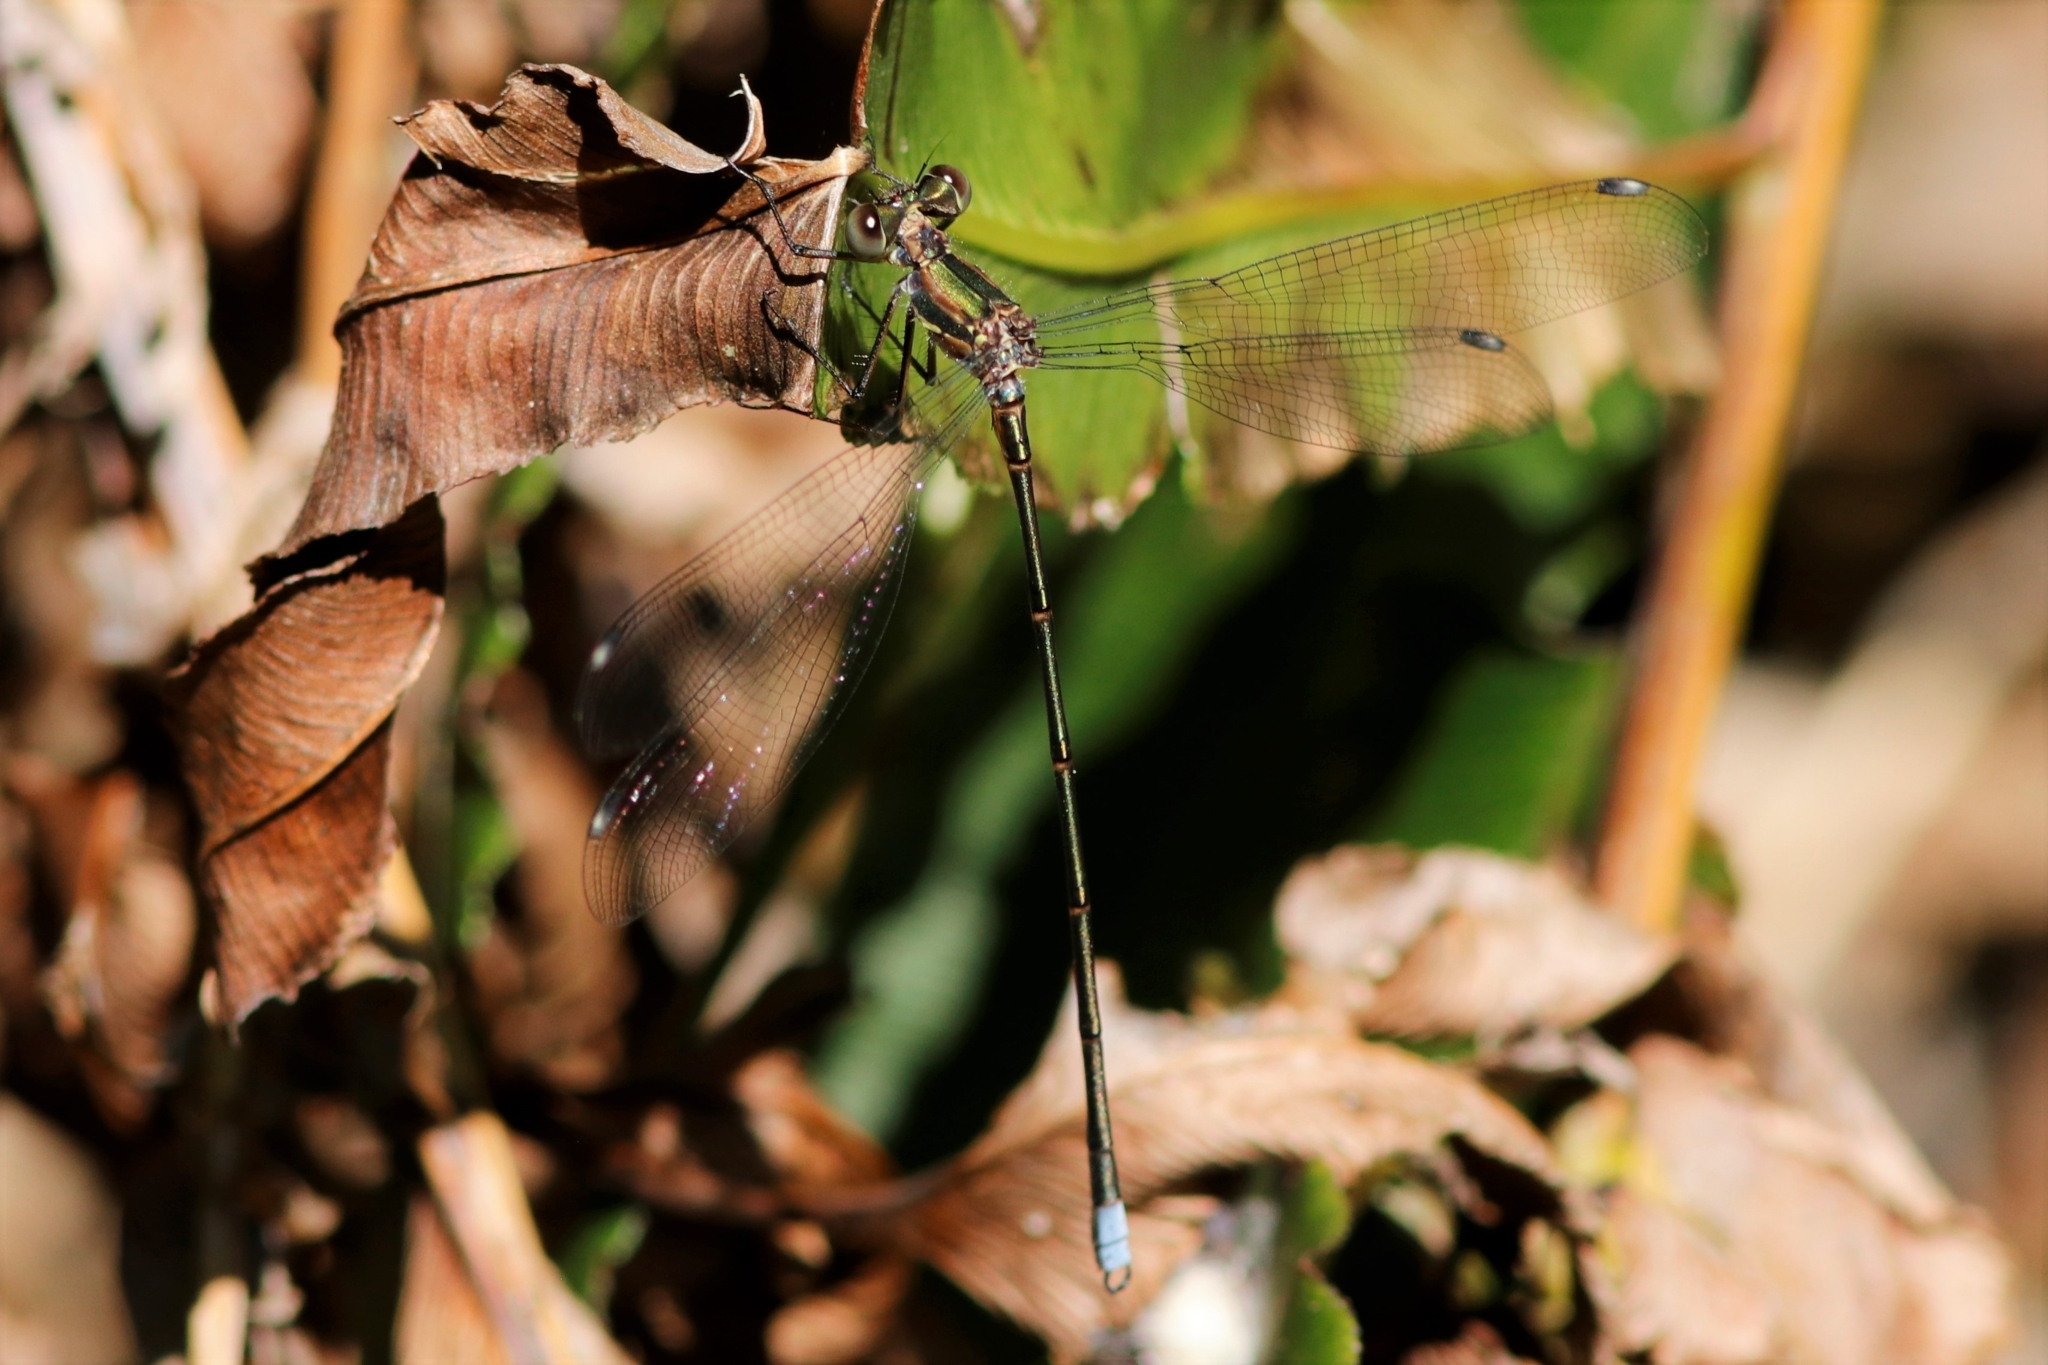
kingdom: Animalia
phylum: Arthropoda
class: Insecta
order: Odonata
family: Synlestidae
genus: Chlorolestes
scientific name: Chlorolestes tessellatus
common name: Forest malachite
